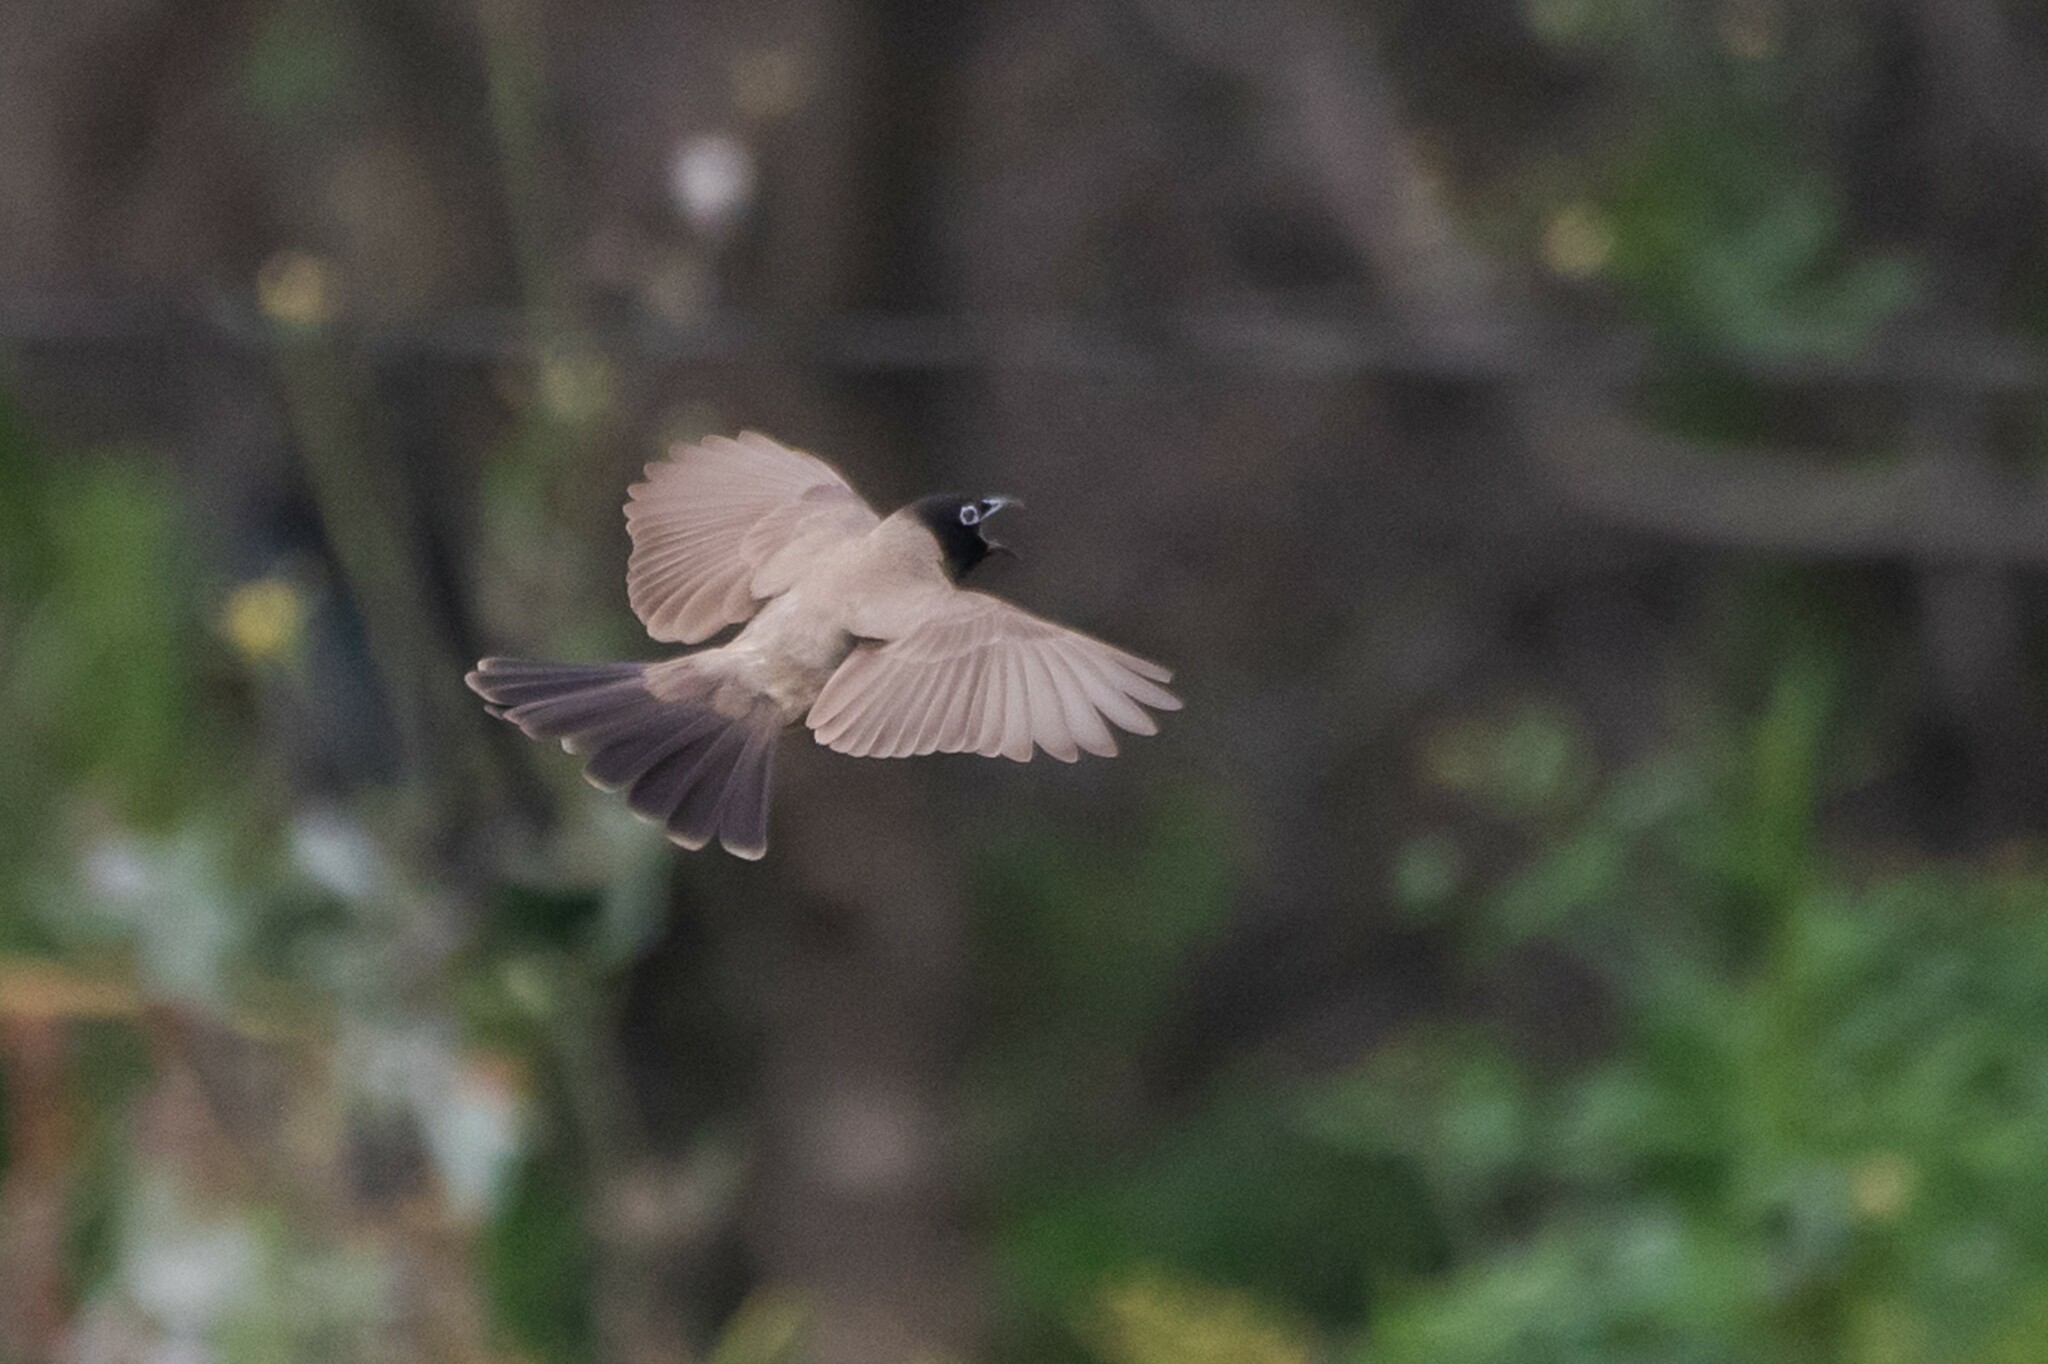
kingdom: Animalia
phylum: Chordata
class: Aves
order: Passeriformes
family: Pycnonotidae
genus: Pycnonotus
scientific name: Pycnonotus xanthopygos
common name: White-spectacled bulbul
